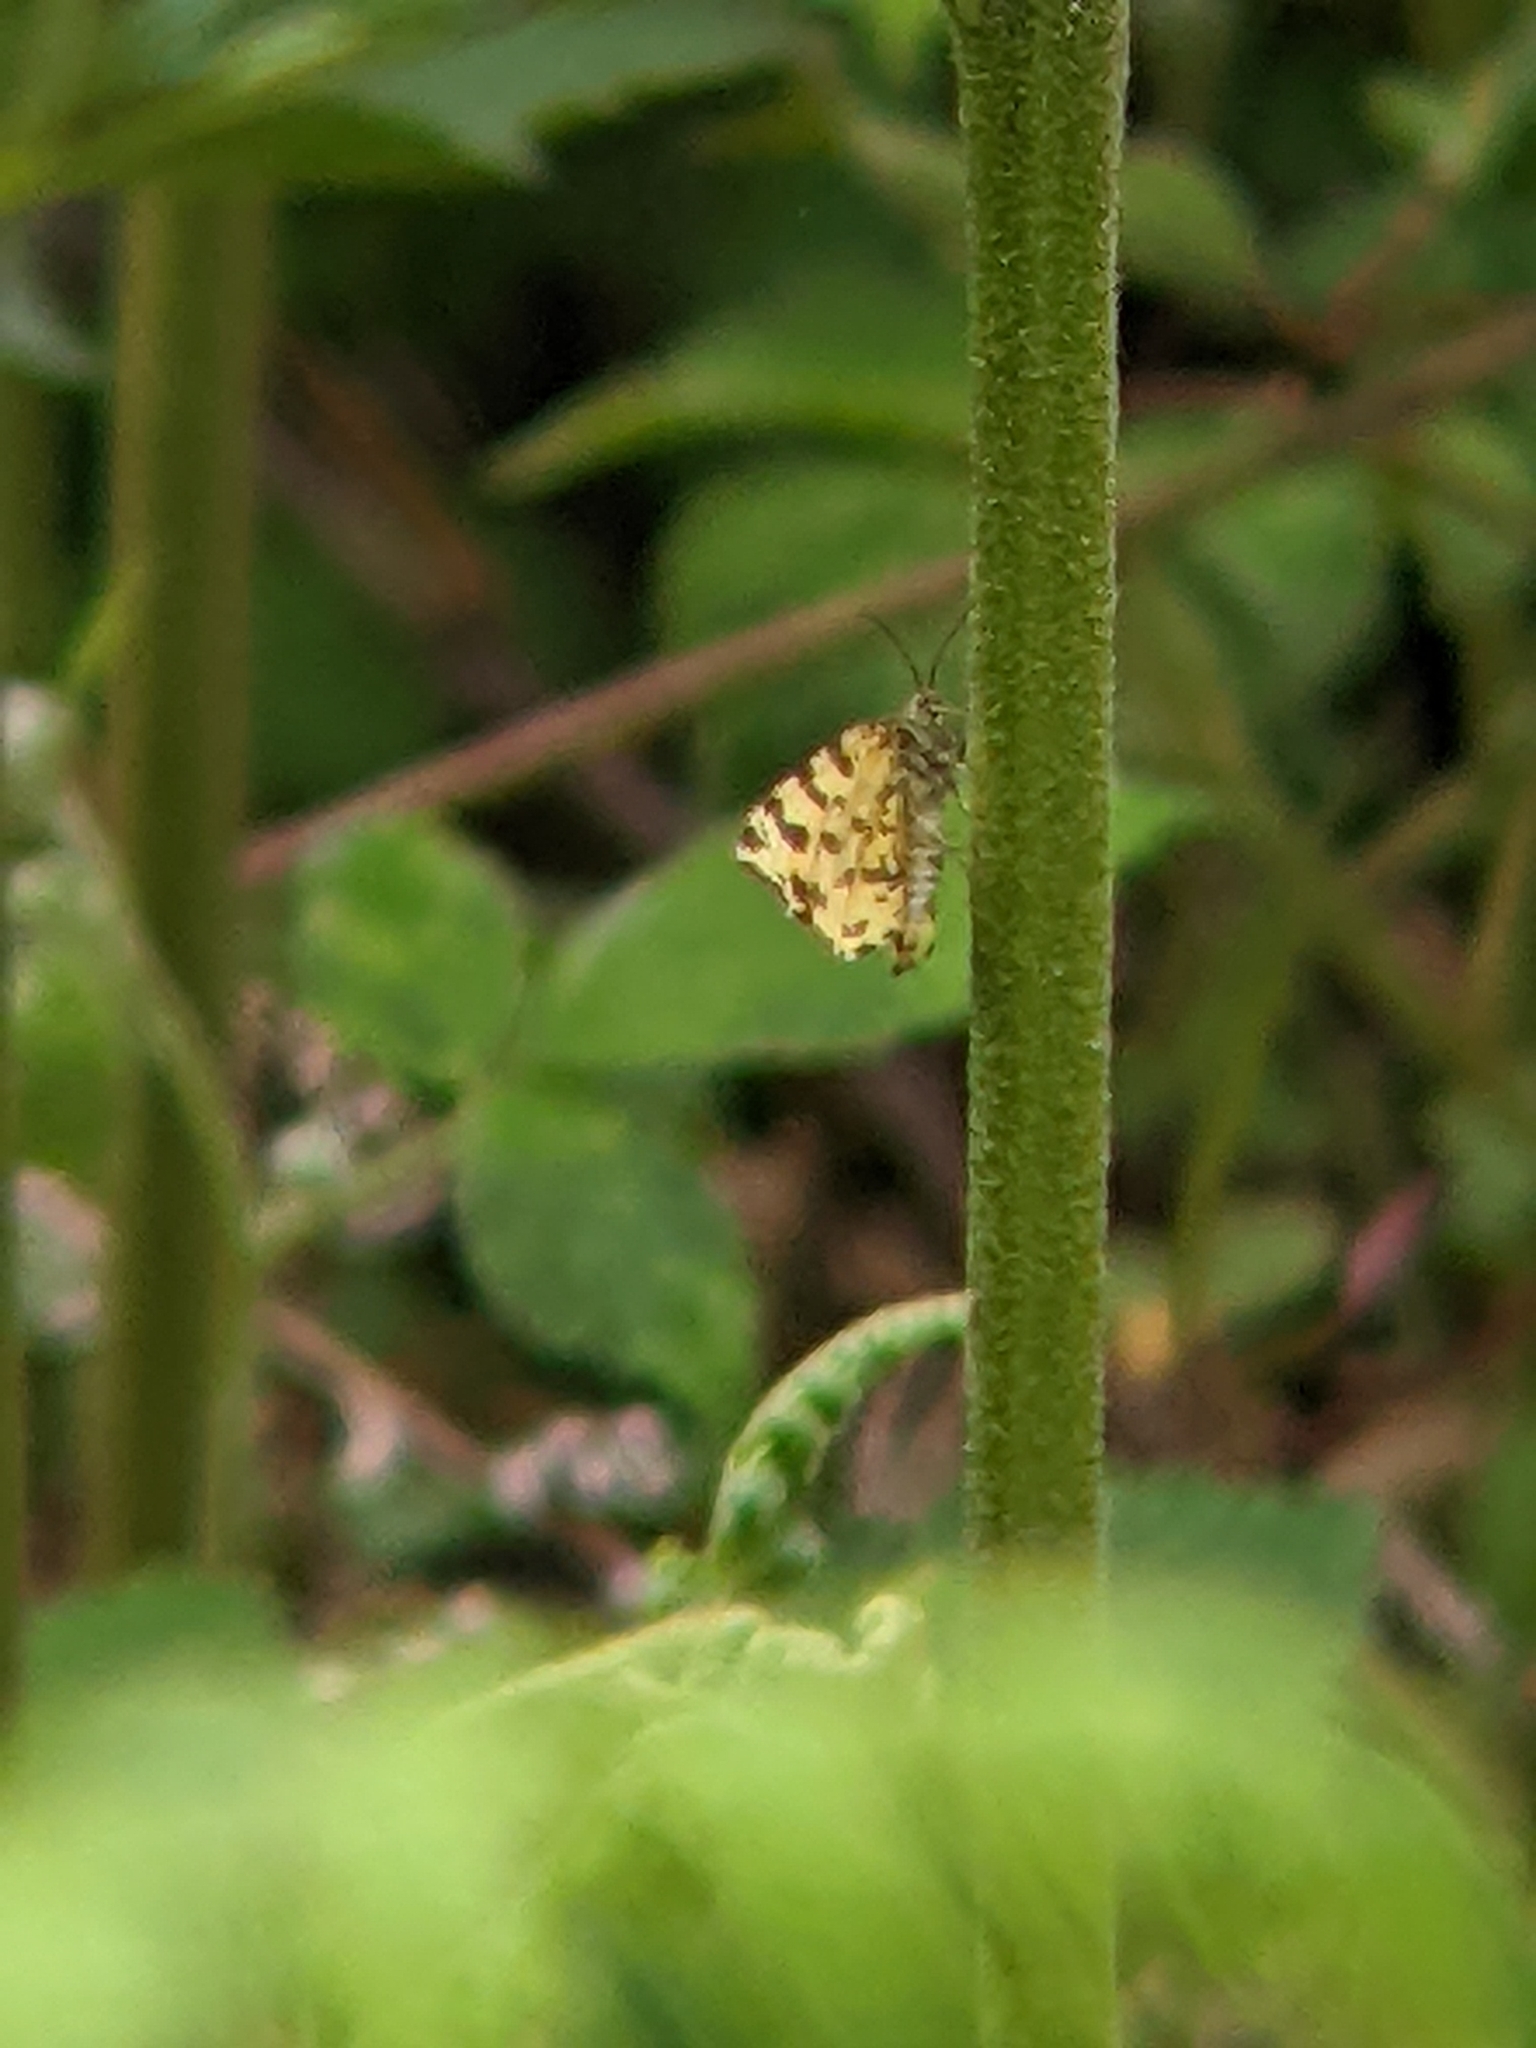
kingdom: Animalia
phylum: Arthropoda
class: Insecta
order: Lepidoptera
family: Geometridae
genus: Pseudopanthera
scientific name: Pseudopanthera macularia
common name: Speckled yellow
